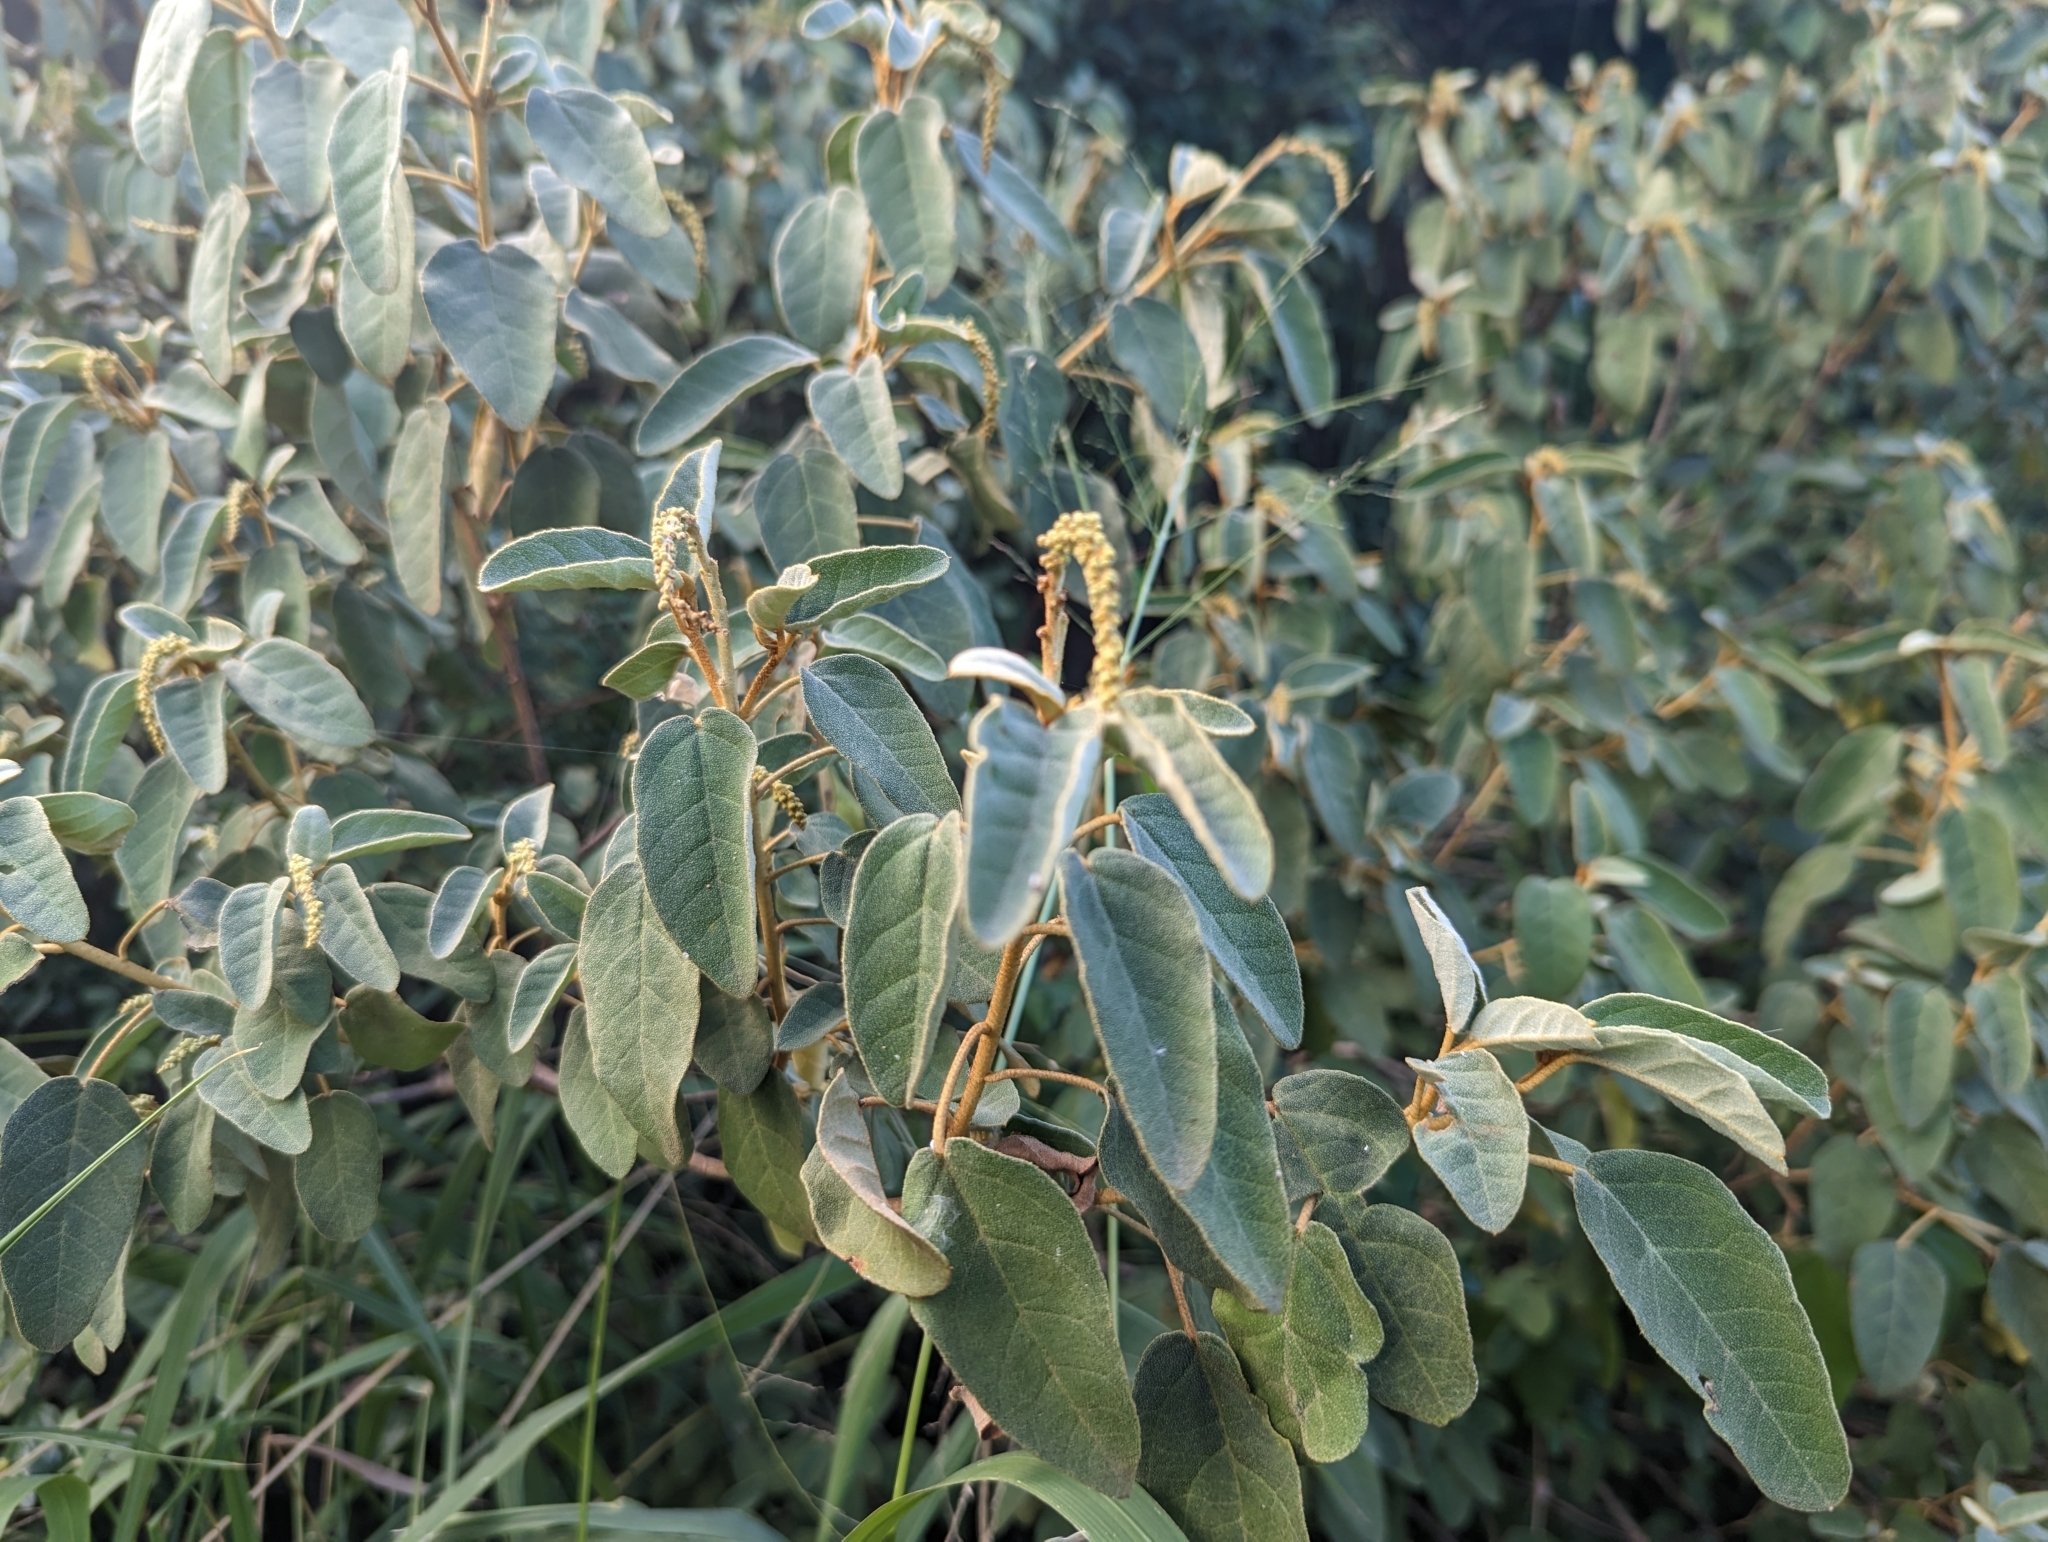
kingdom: Plantae
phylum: Tracheophyta
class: Magnoliopsida
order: Malpighiales
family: Euphorbiaceae
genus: Croton
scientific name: Croton flavens
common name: Yellow balsam
